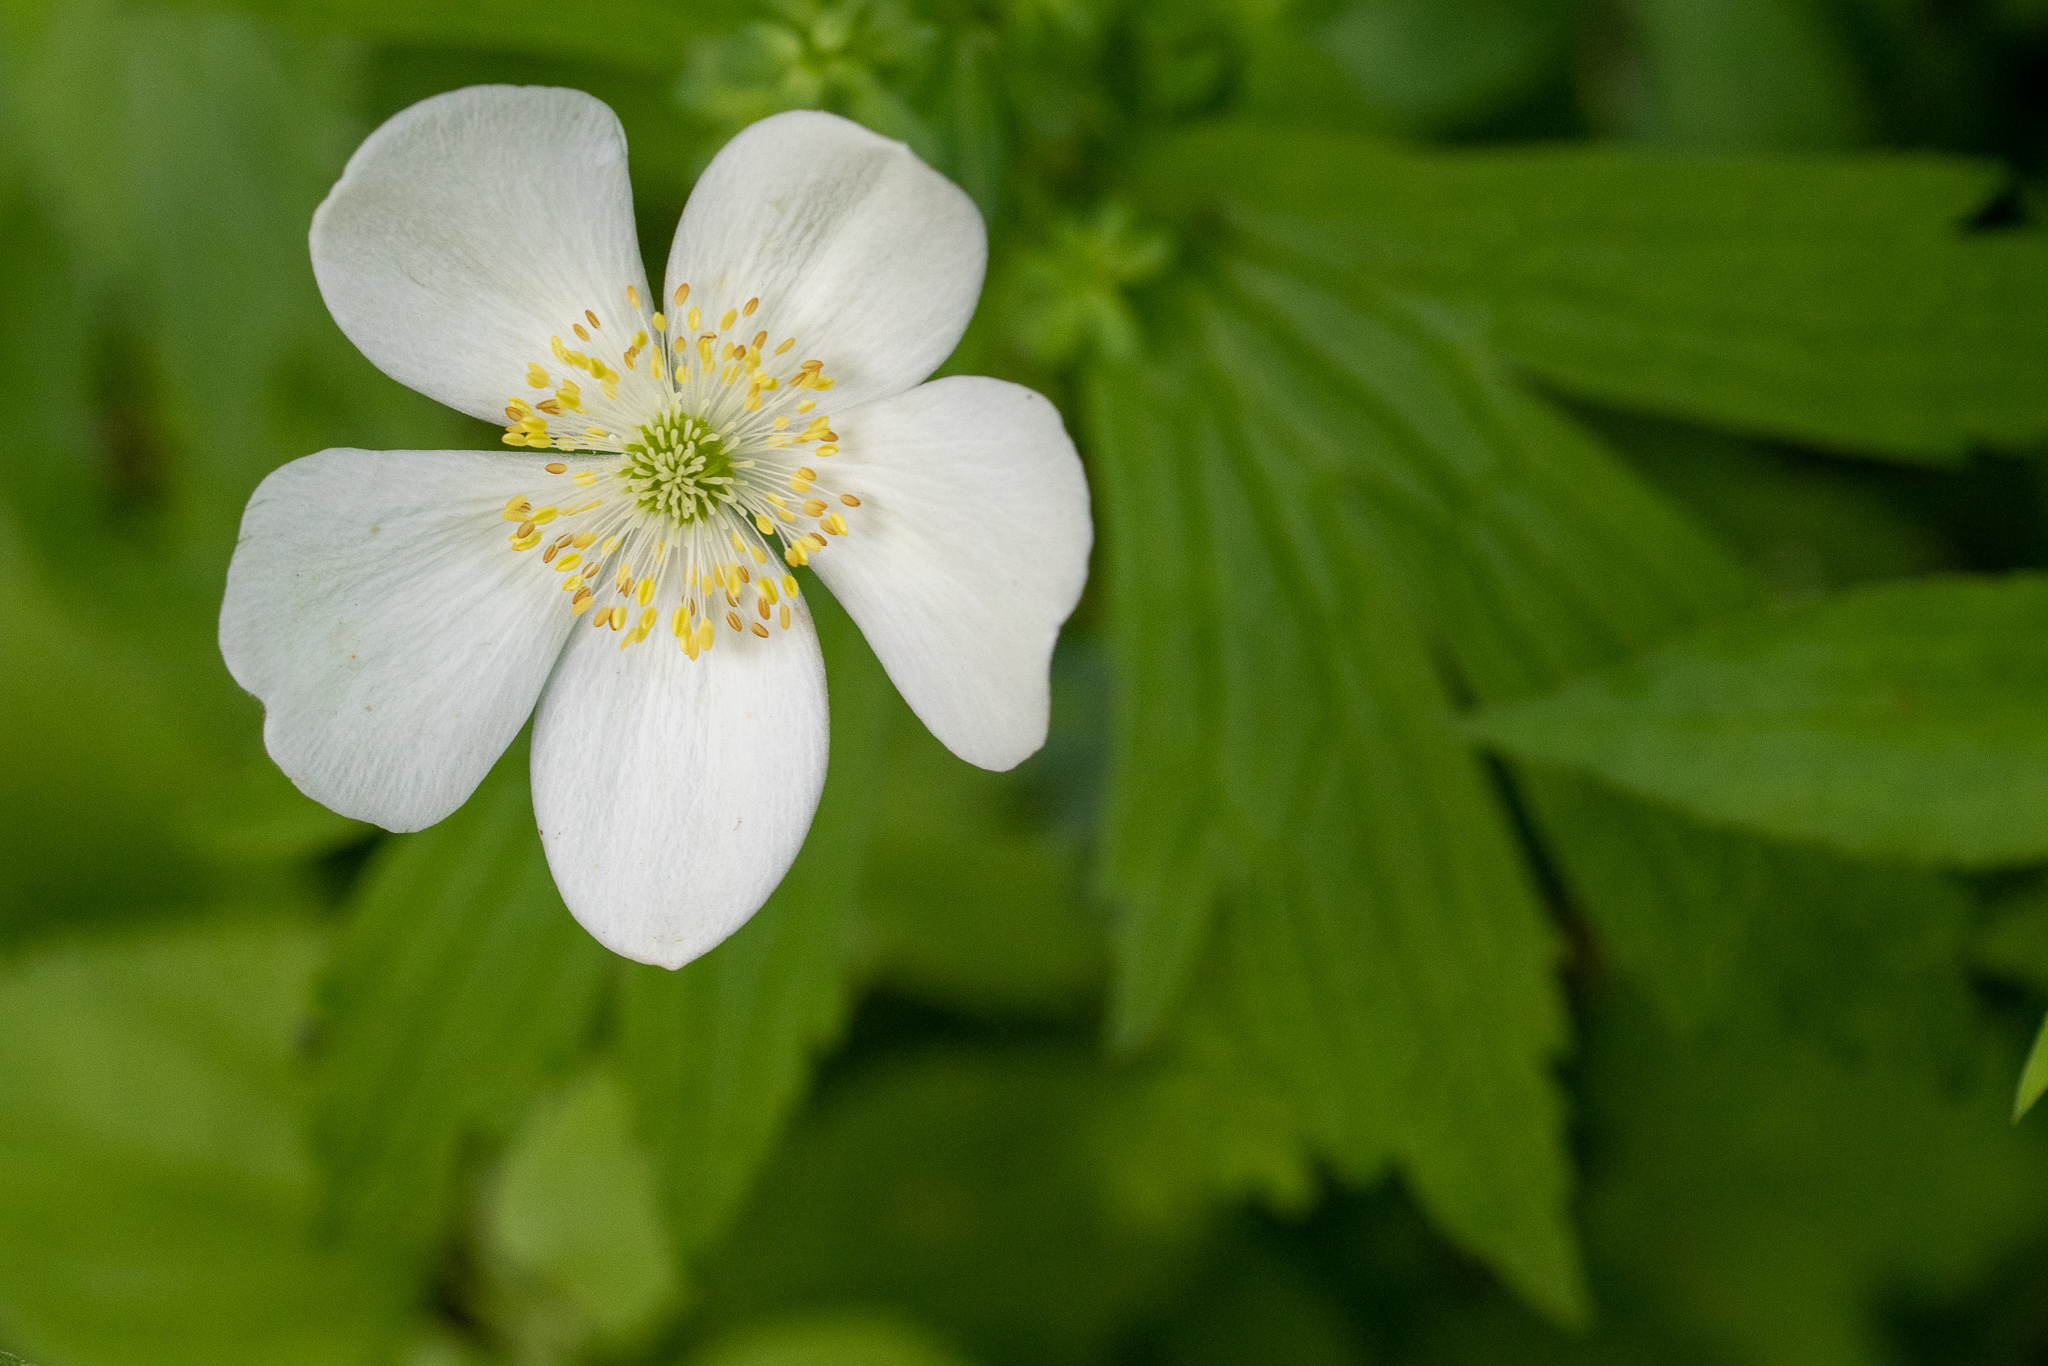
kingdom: Plantae
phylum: Tracheophyta
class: Magnoliopsida
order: Ranunculales
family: Ranunculaceae
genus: Anemonastrum
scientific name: Anemonastrum canadense
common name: Canada anemone
